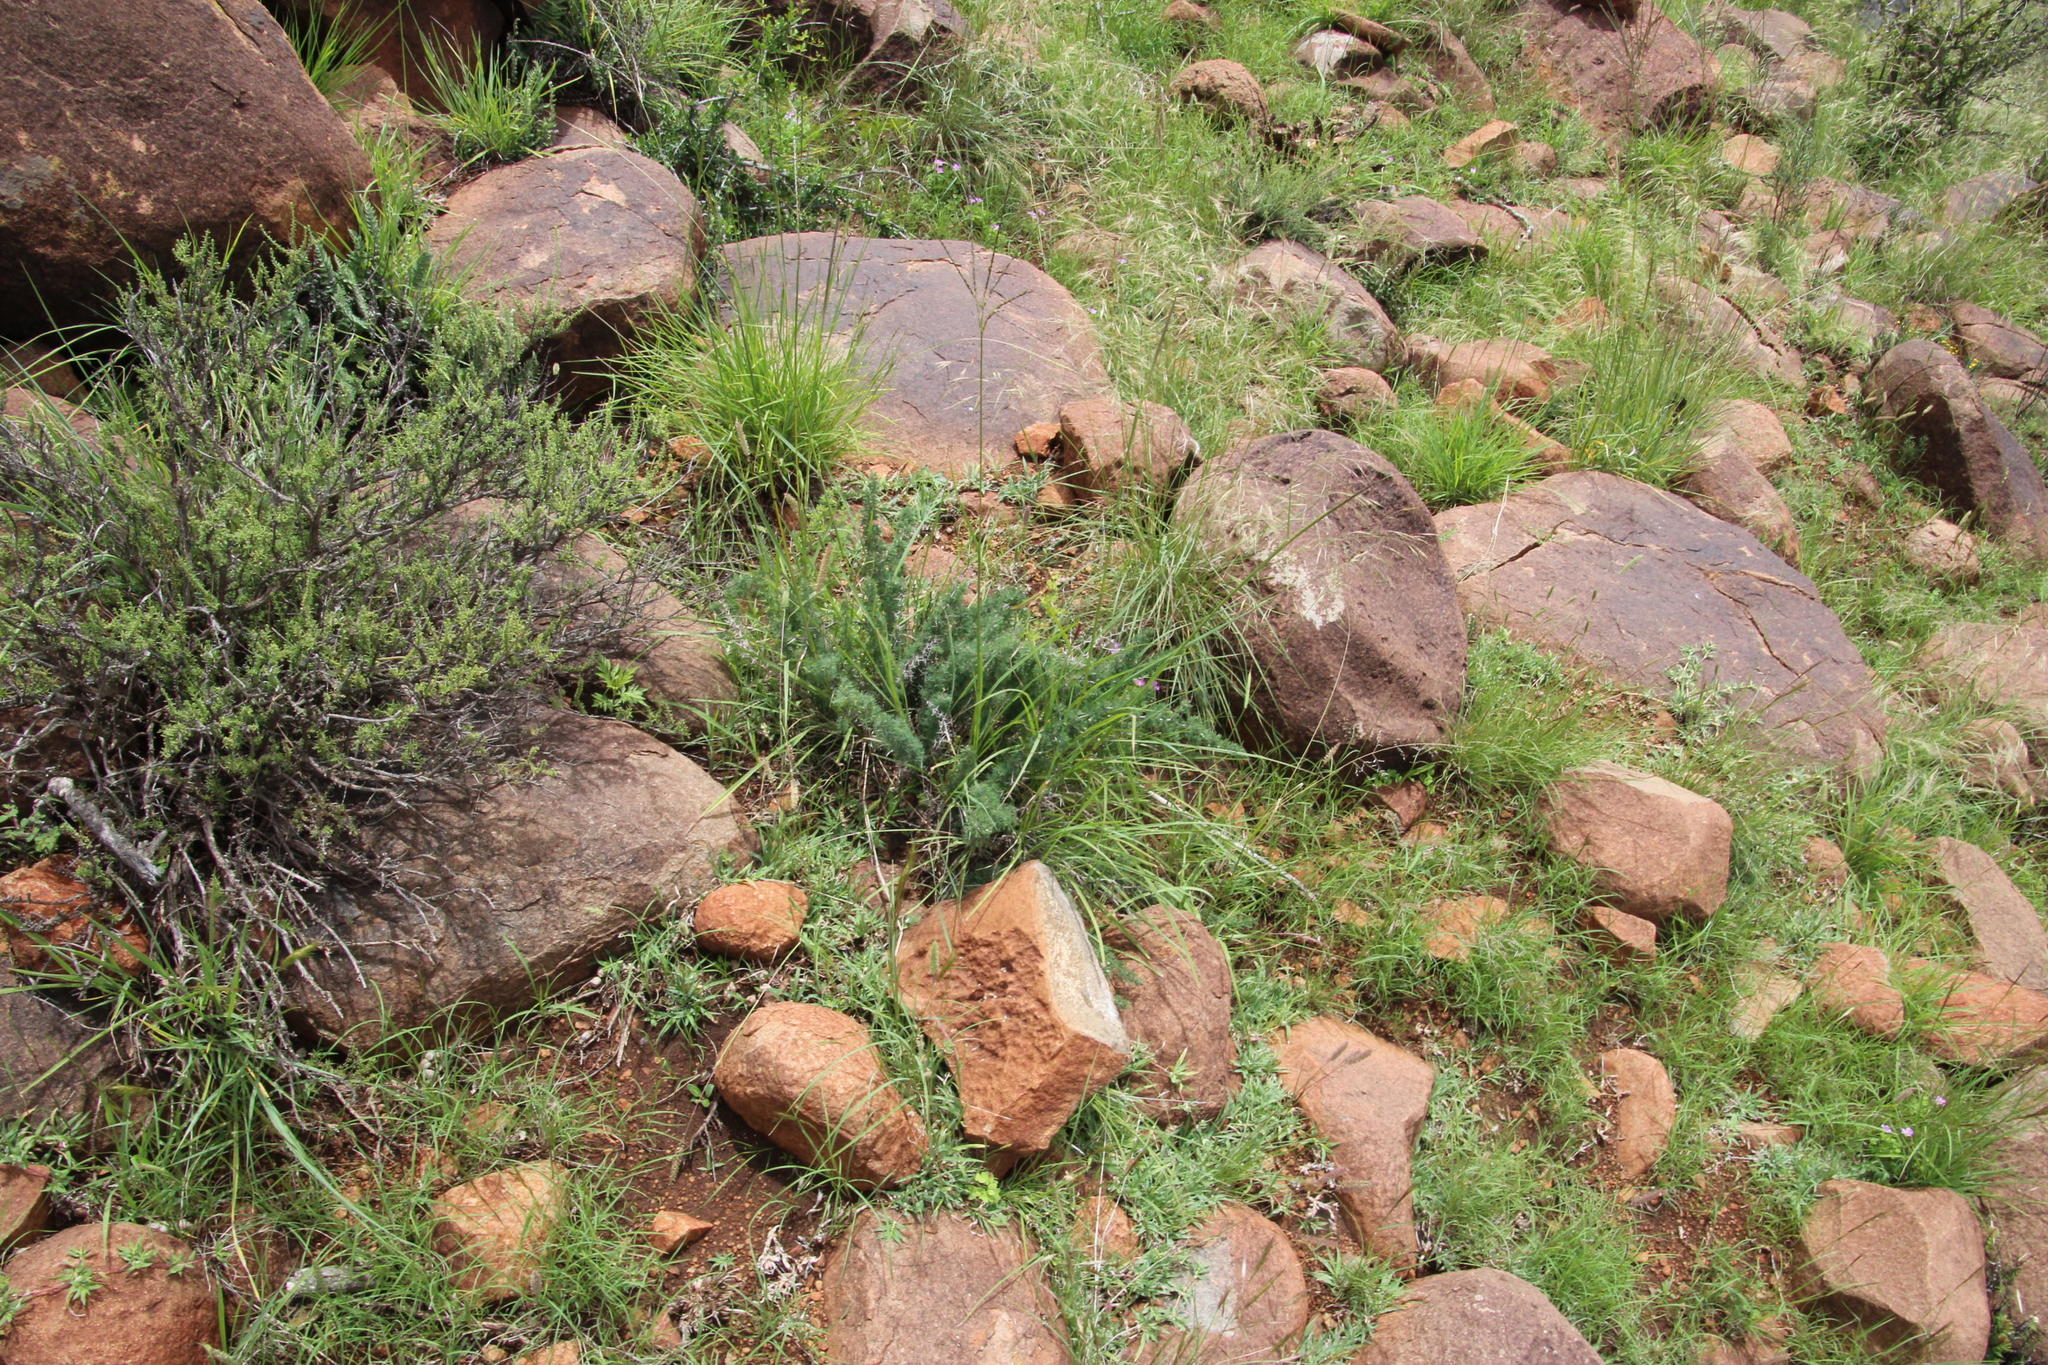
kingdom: Plantae
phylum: Tracheophyta
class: Liliopsida
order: Asparagales
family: Asparagaceae
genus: Asparagus
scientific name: Asparagus suaveolens
